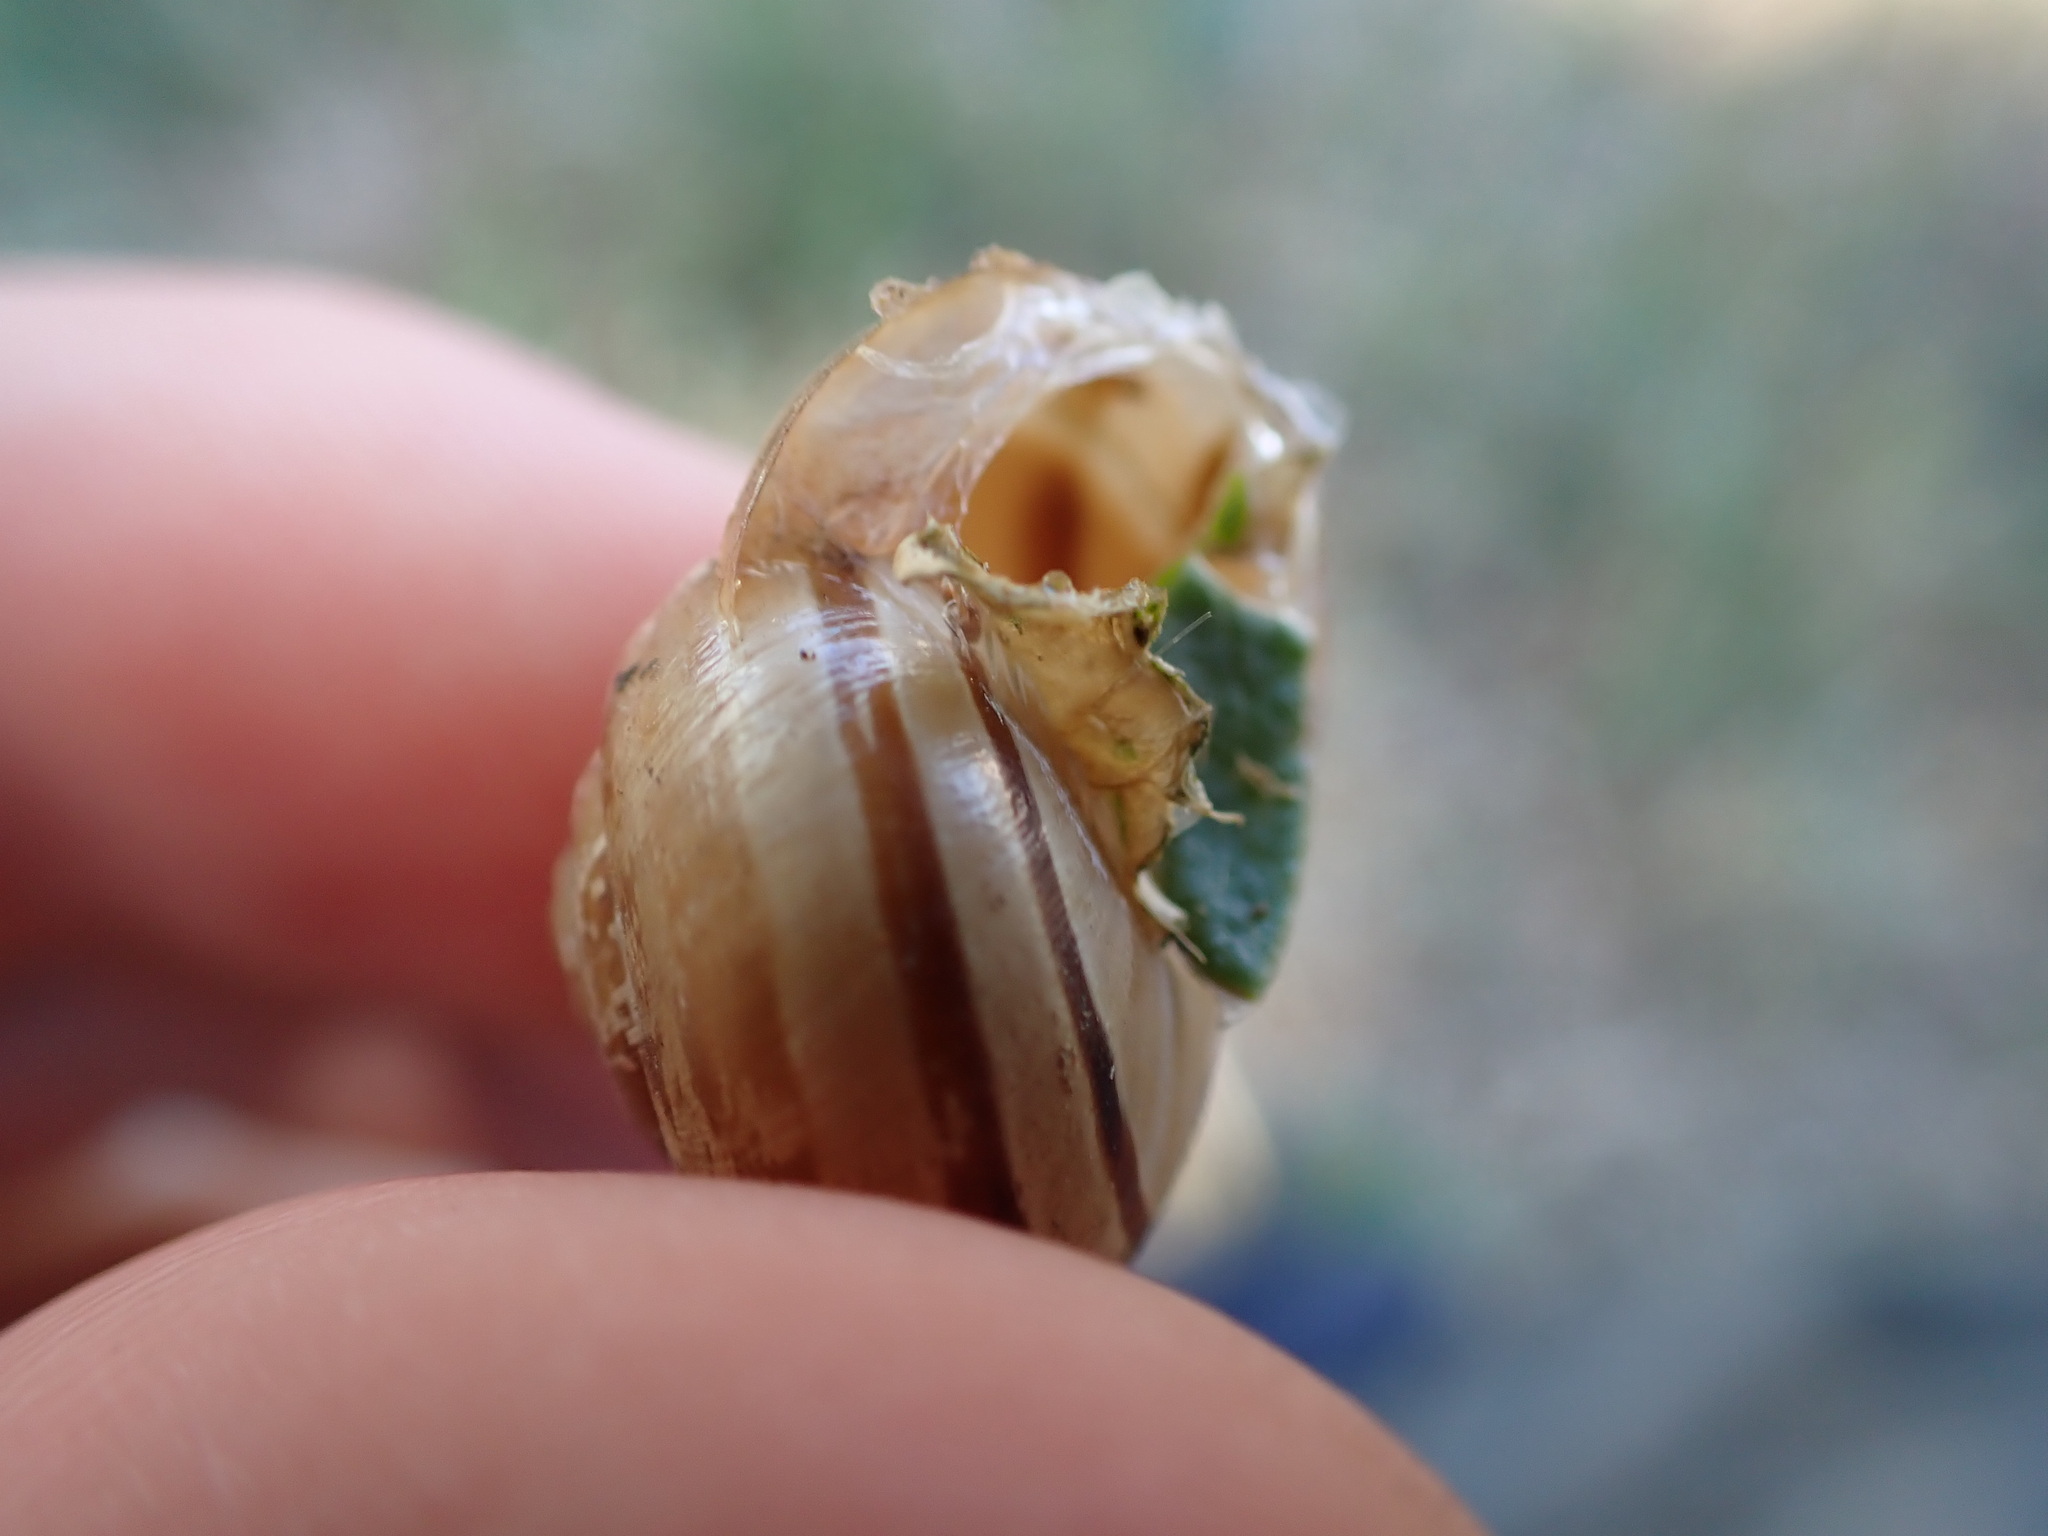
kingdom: Animalia
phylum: Mollusca
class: Gastropoda
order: Stylommatophora
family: Helicidae
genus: Eobania
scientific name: Eobania vermiculata
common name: Chocolateband snail
